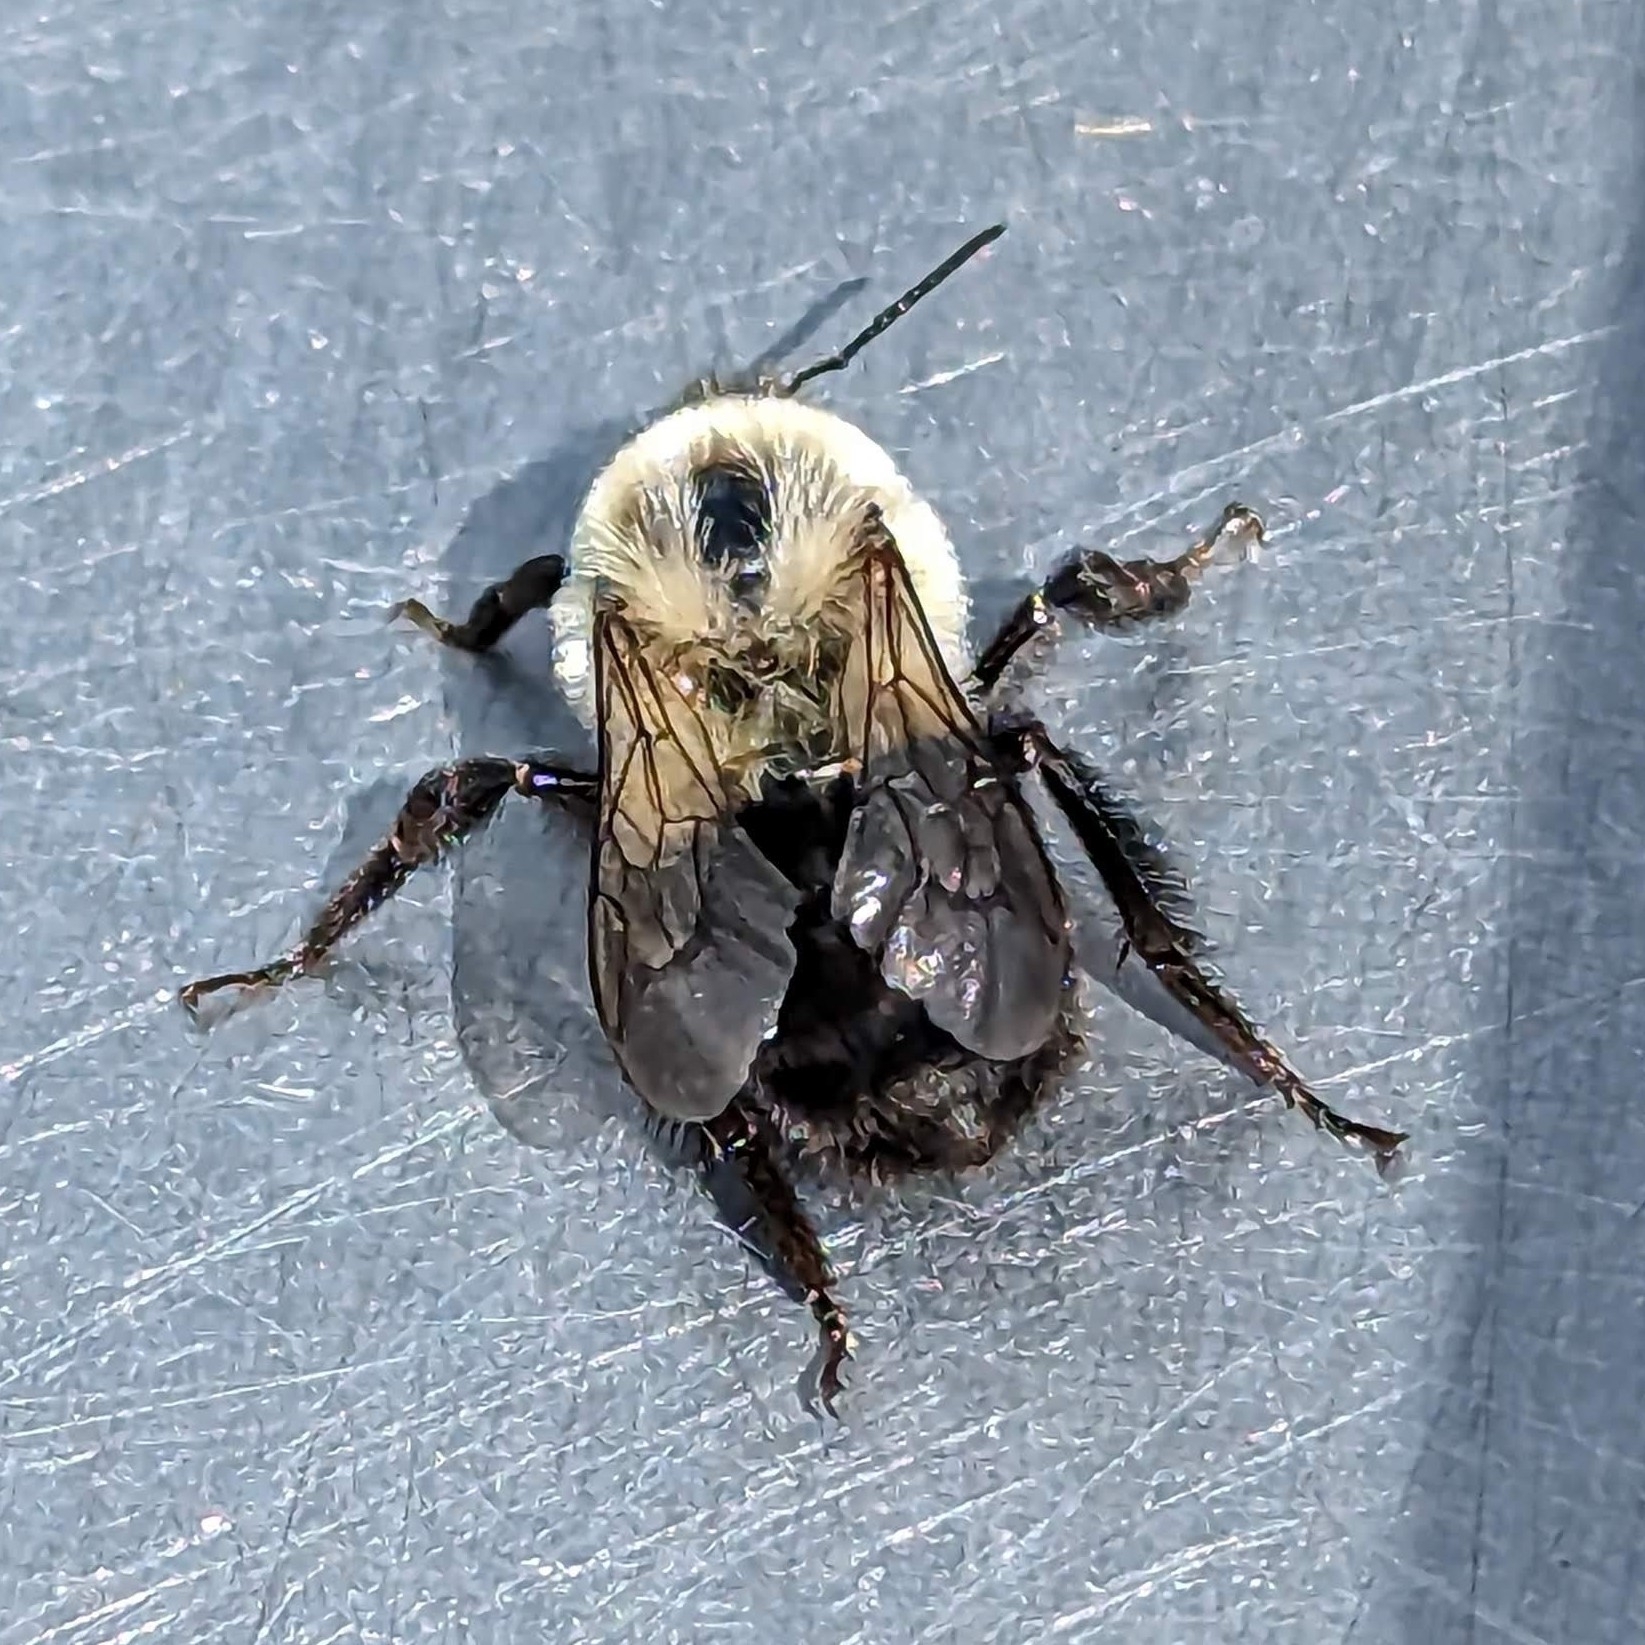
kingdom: Animalia
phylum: Arthropoda
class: Insecta
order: Hymenoptera
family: Apidae
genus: Bombus
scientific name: Bombus impatiens
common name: Common eastern bumble bee
